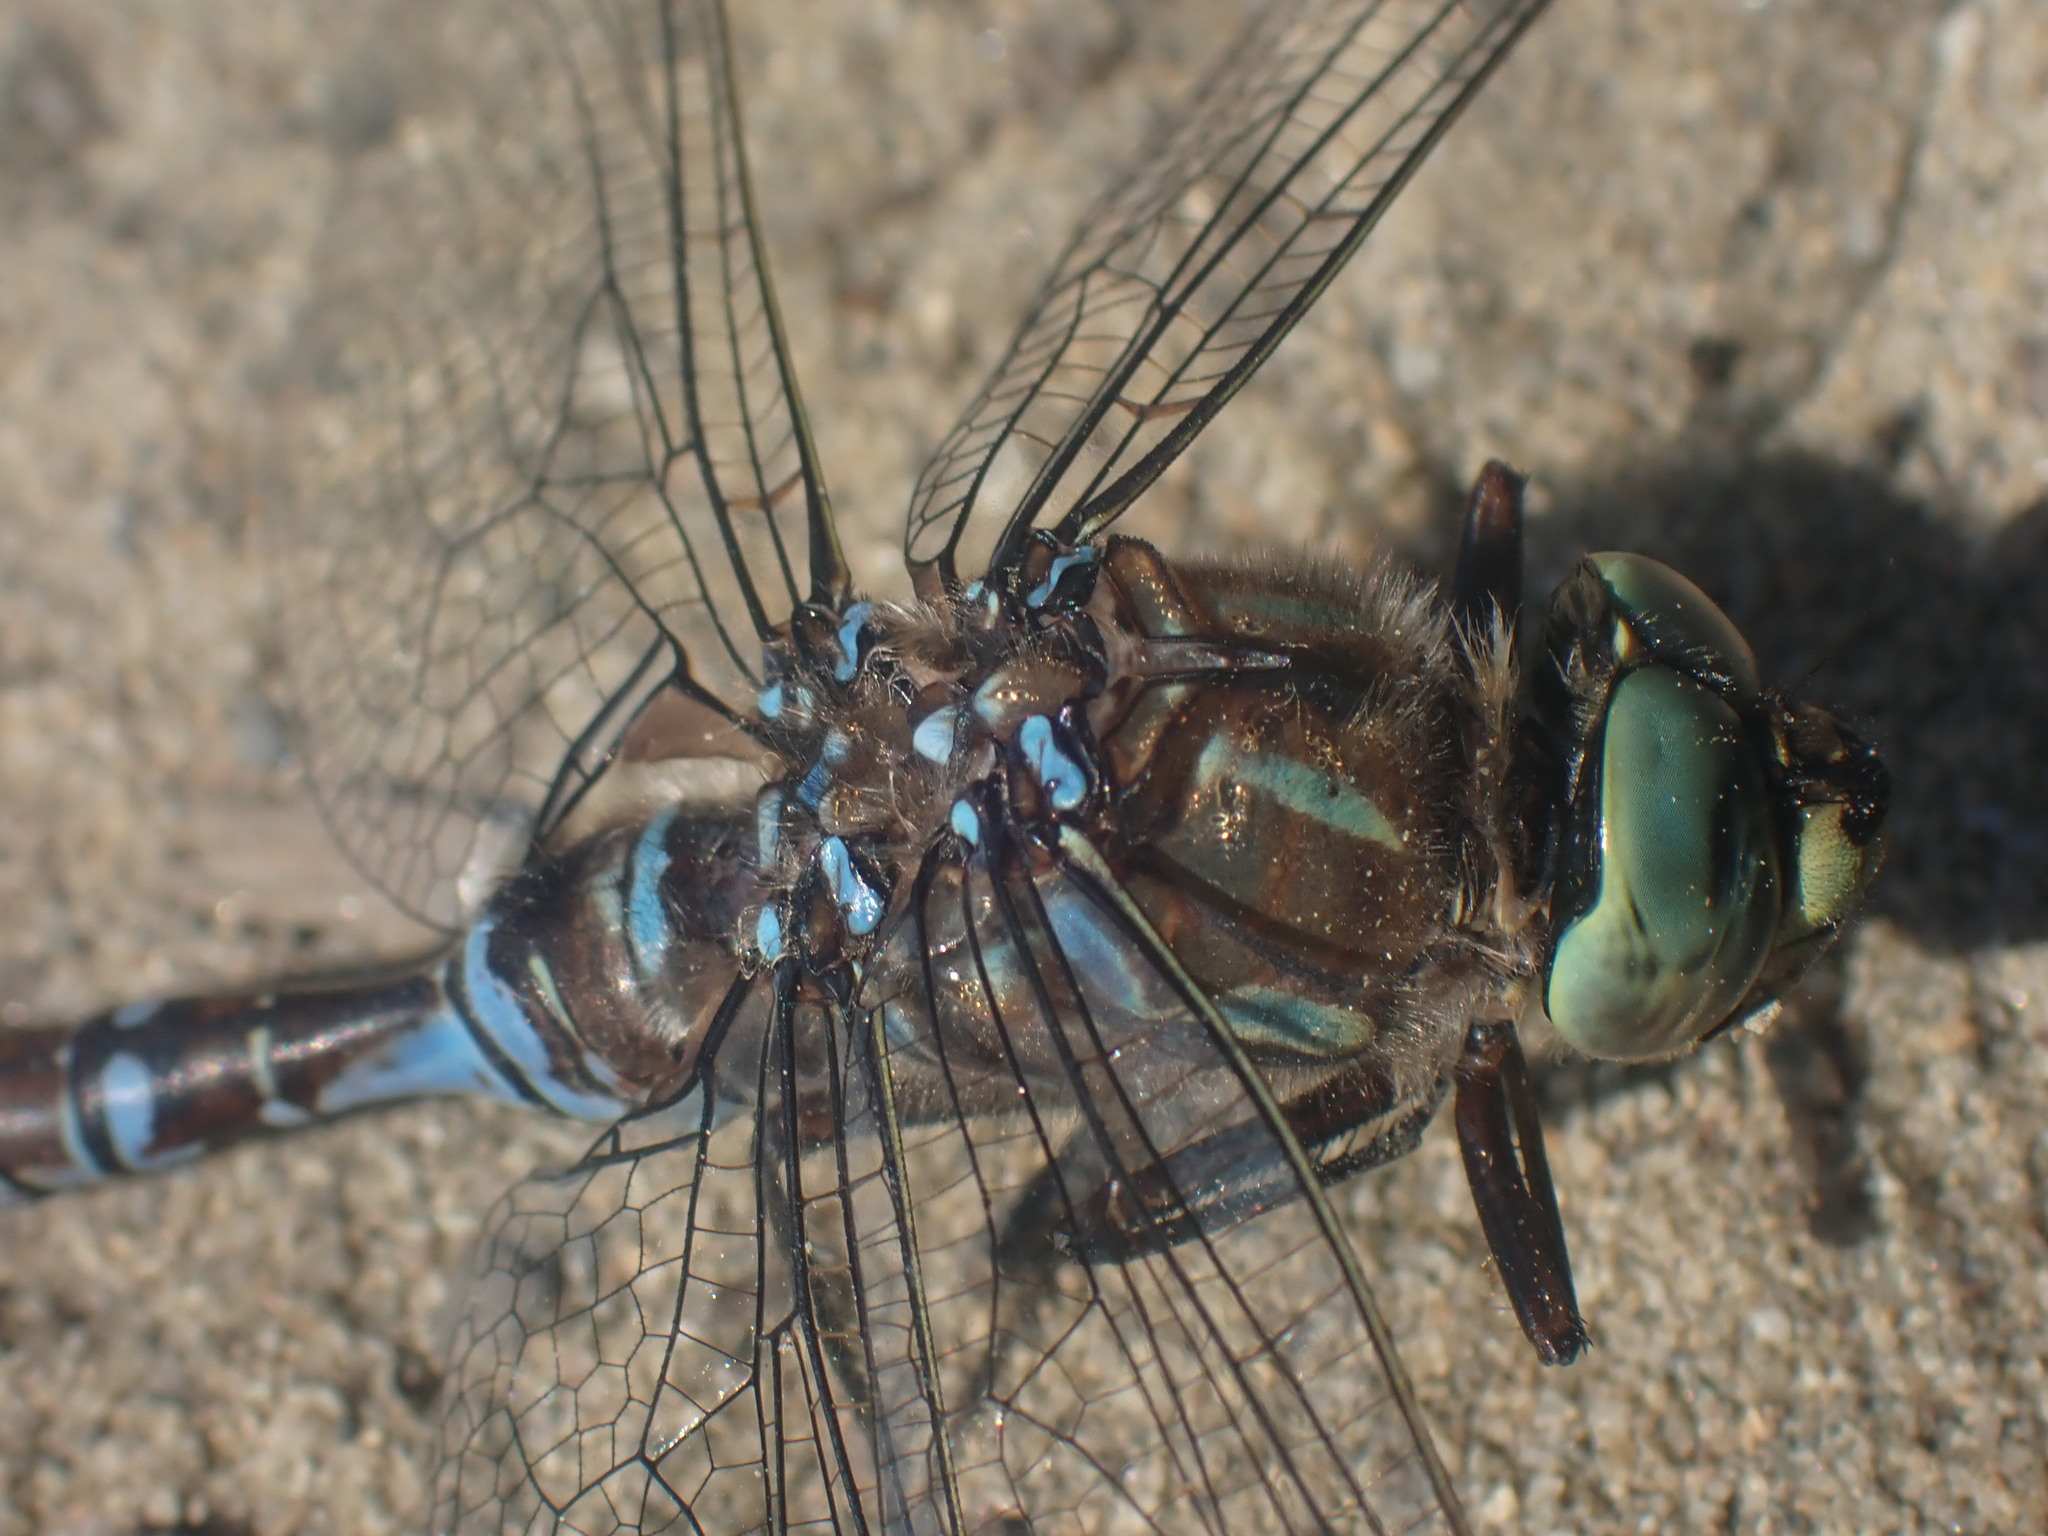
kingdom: Animalia
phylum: Arthropoda
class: Insecta
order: Odonata
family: Aeshnidae
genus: Aeshna
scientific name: Aeshna eremita
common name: Lake darner
